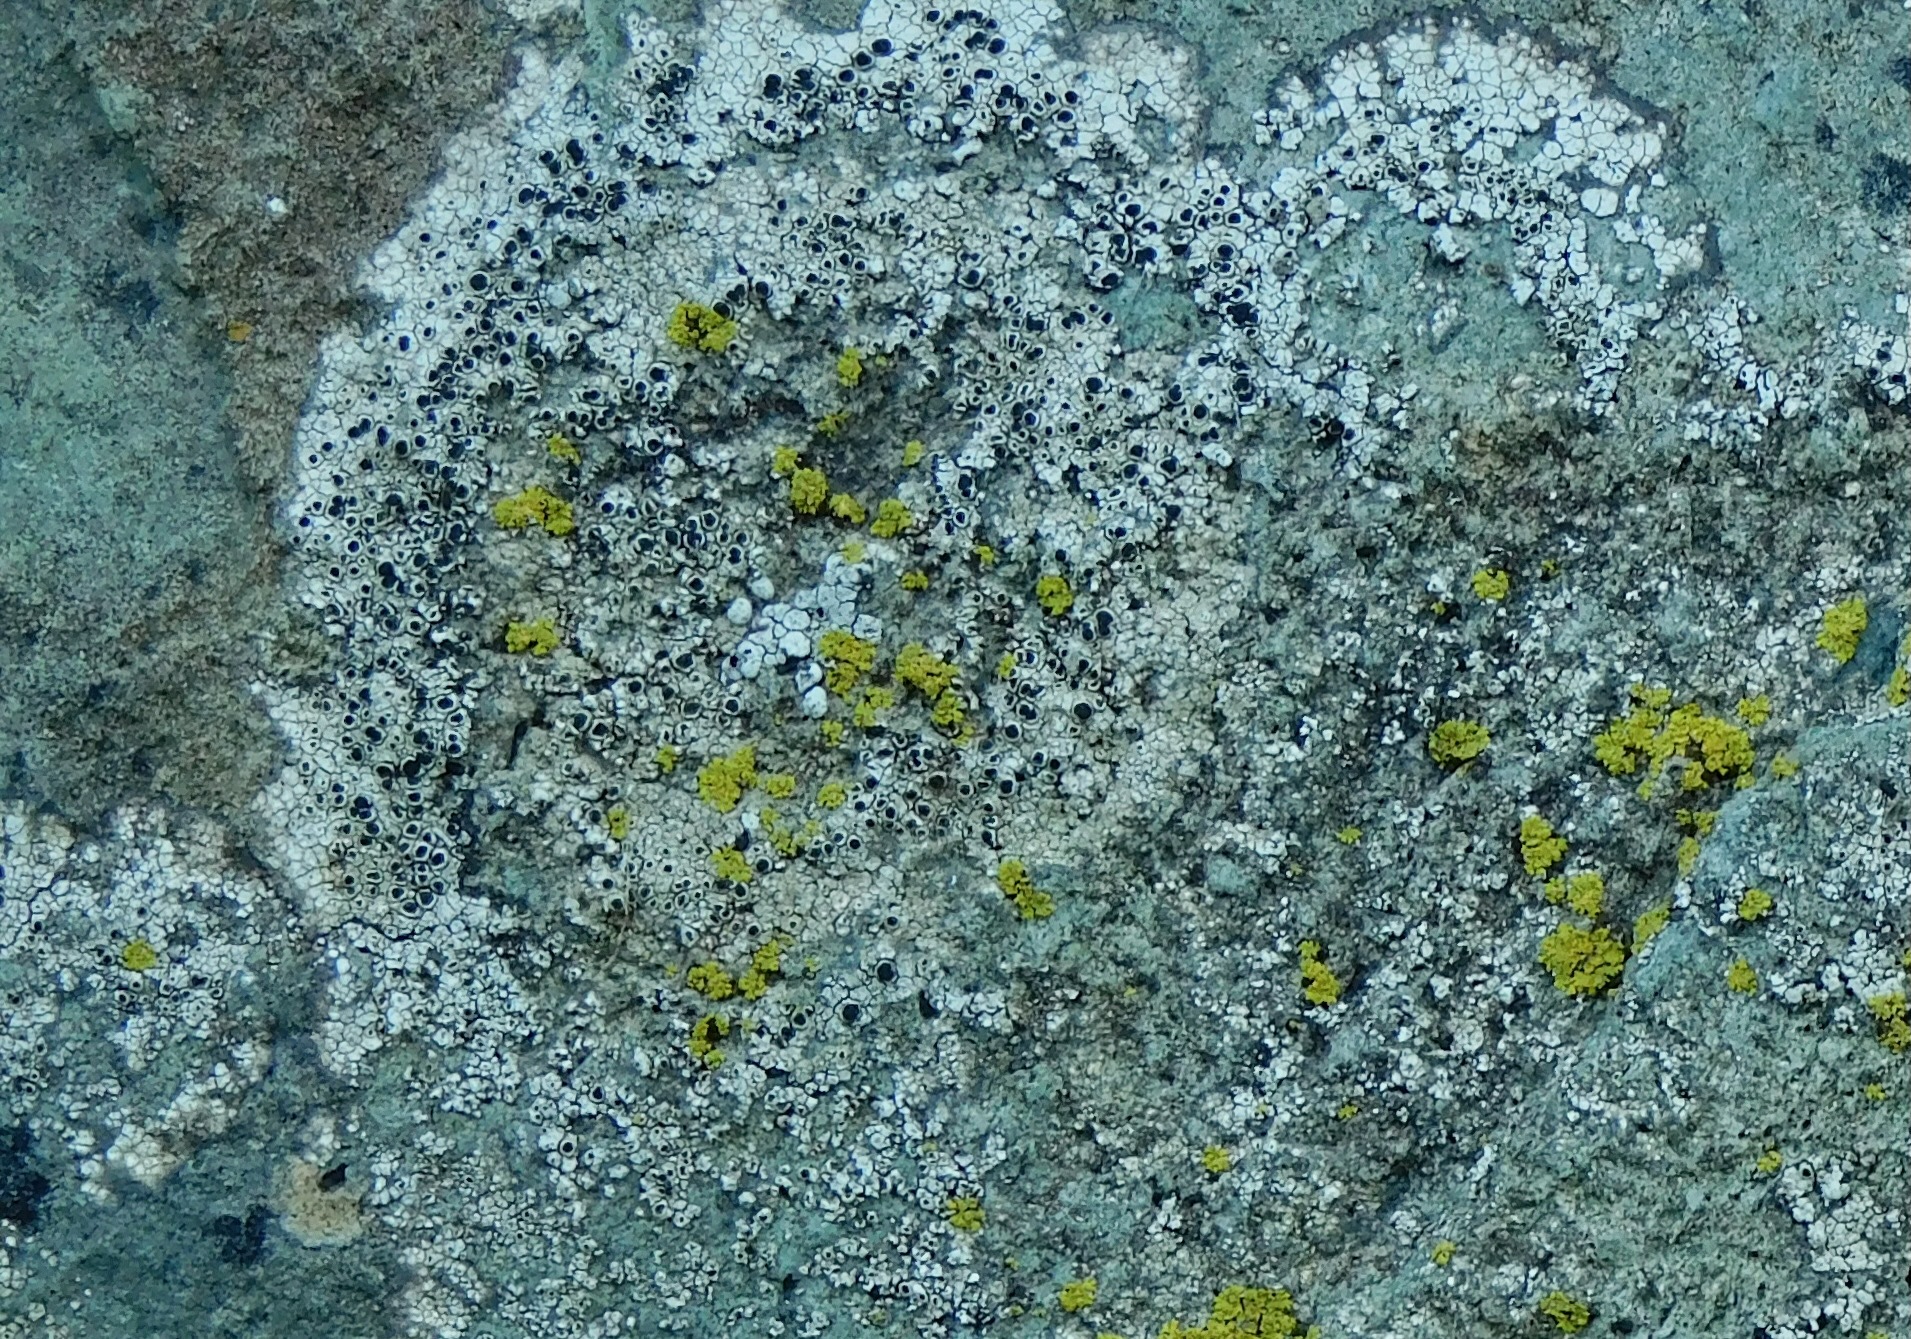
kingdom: Fungi
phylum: Ascomycota
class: Lecanoromycetes
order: Caliciales
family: Physciaceae
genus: Mischoblastia
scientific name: Mischoblastia oxydata
